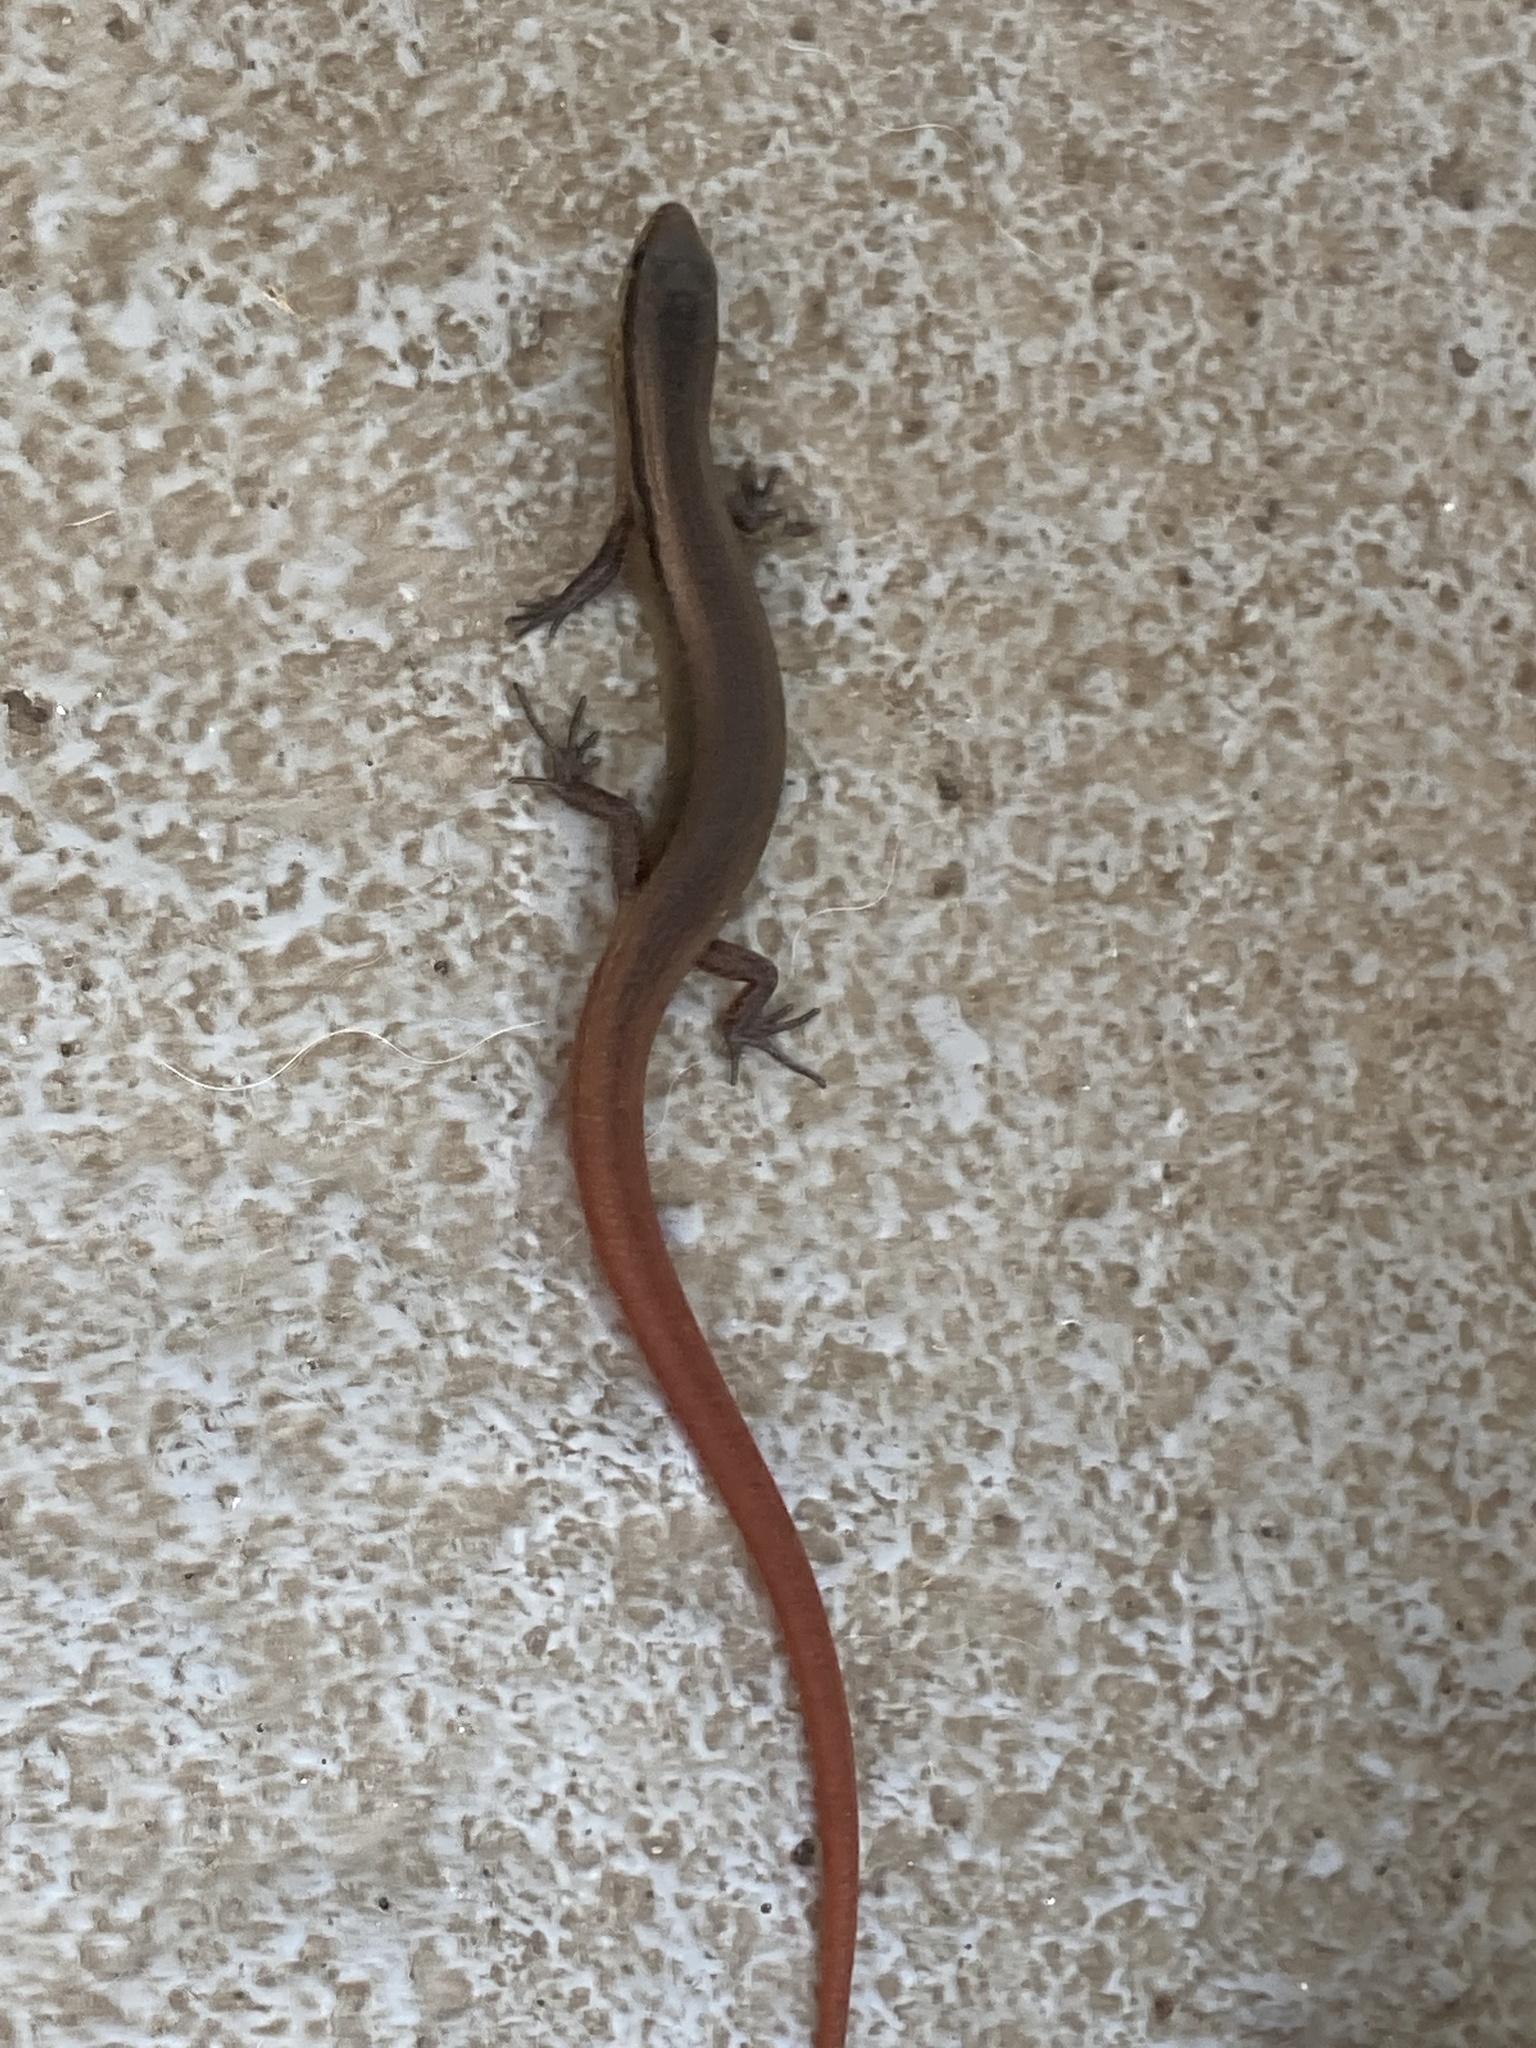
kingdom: Animalia
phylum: Chordata
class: Squamata
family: Gymnophthalmidae
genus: Gymnophthalmus
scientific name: Gymnophthalmus speciosus
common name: Golden spectacled tegu
